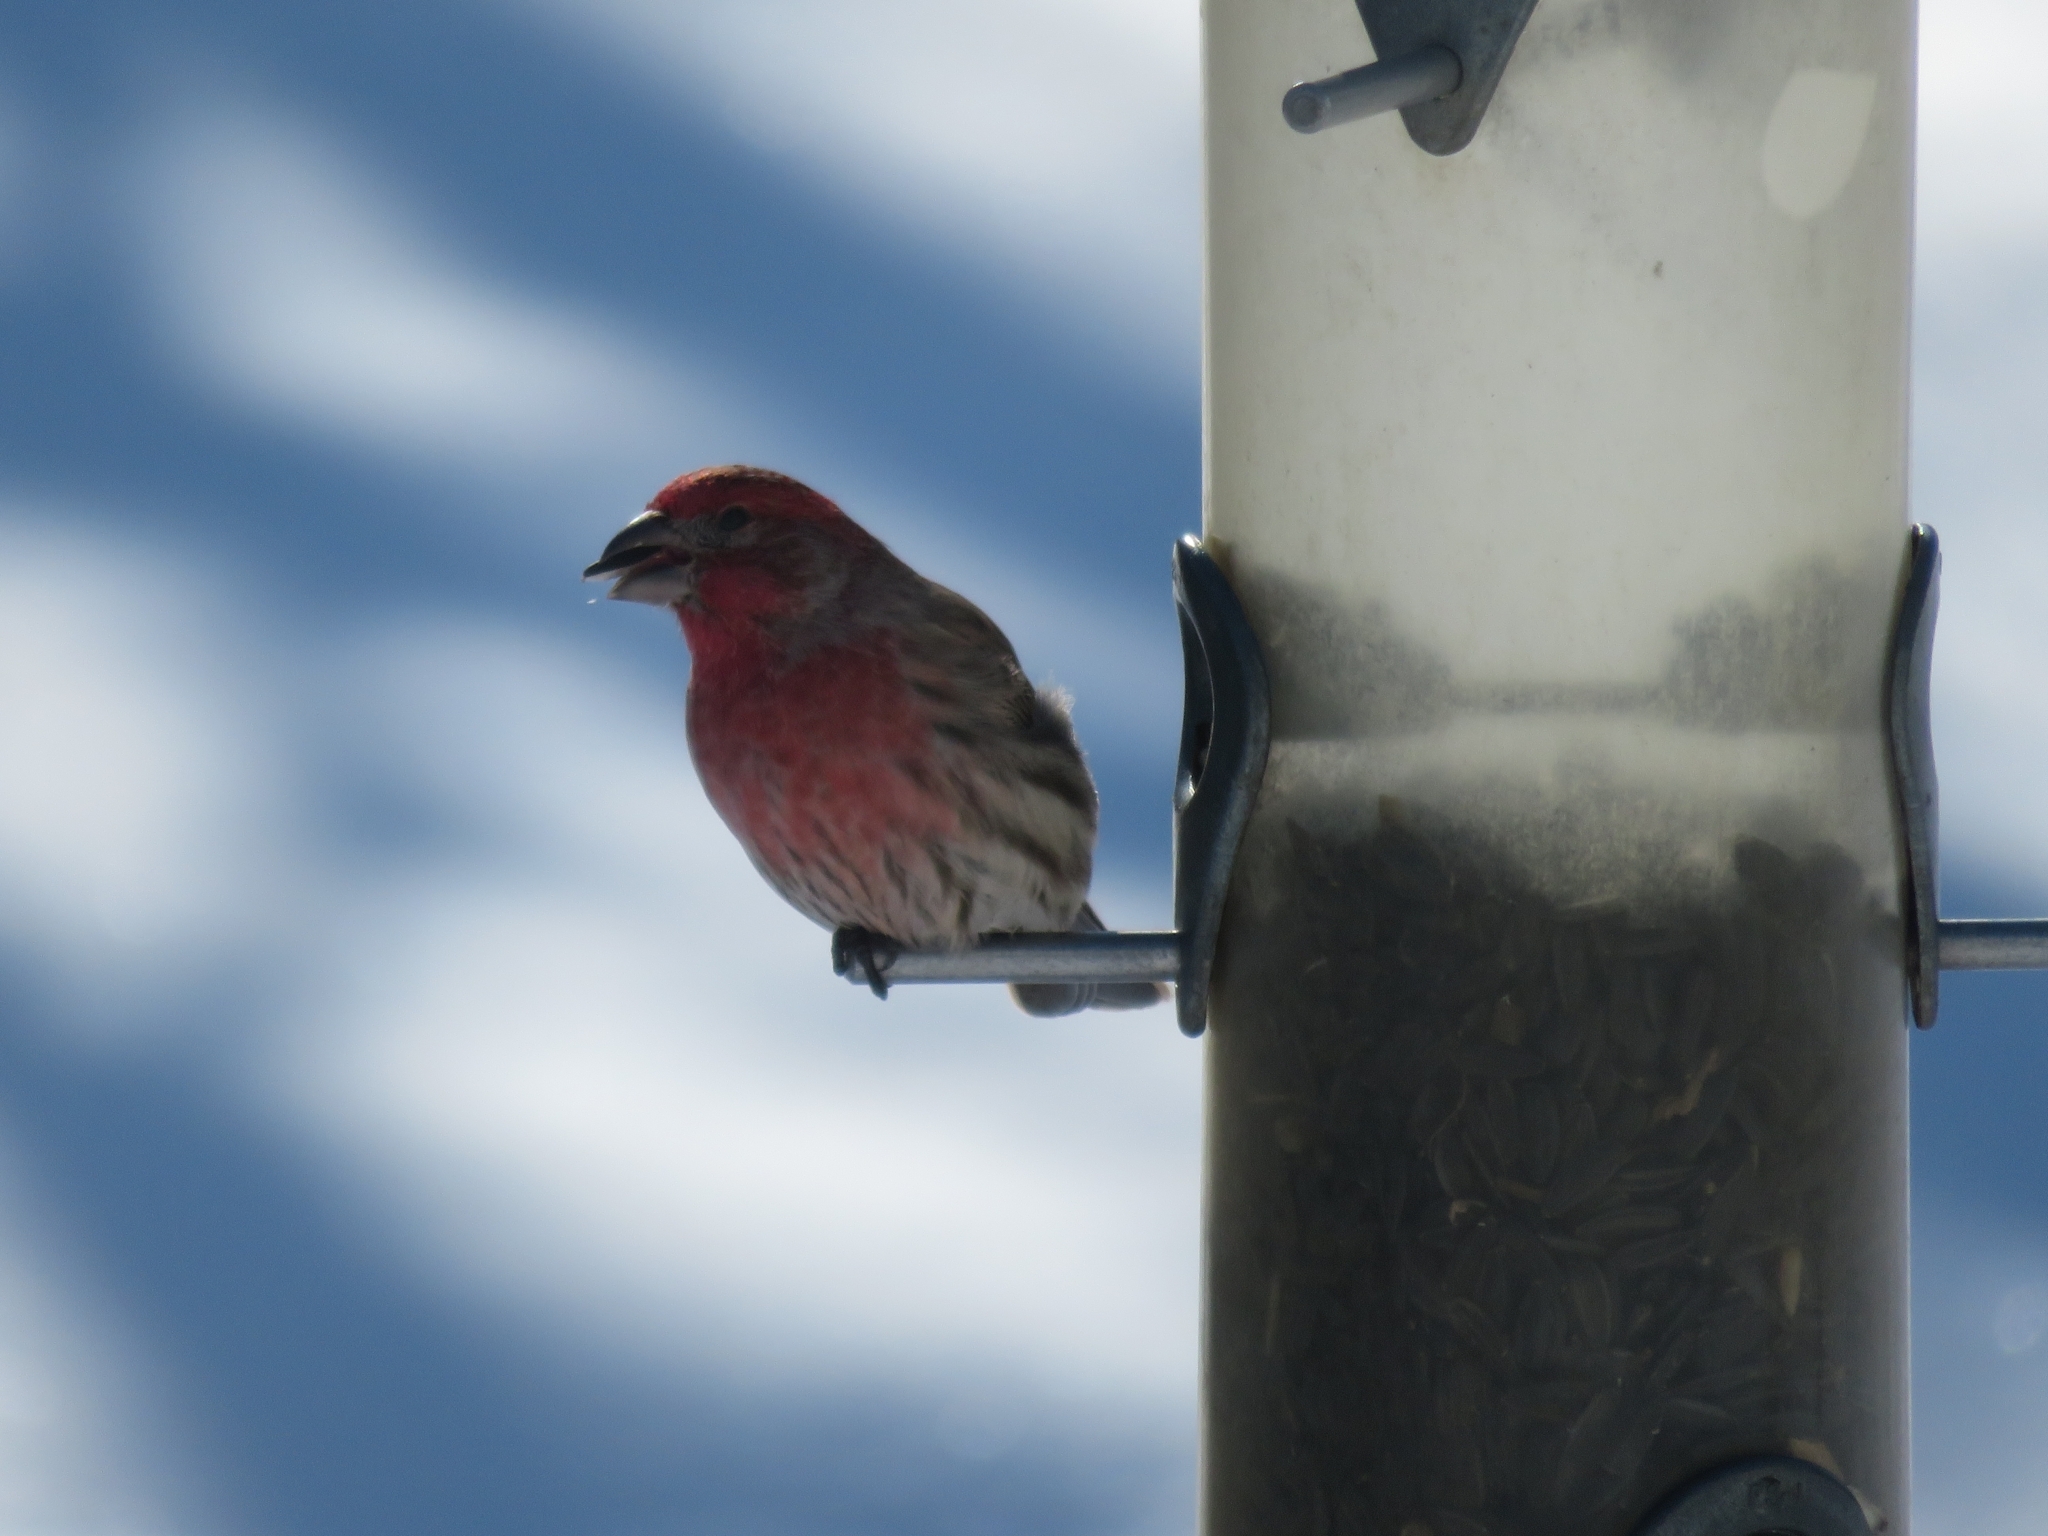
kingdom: Animalia
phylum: Chordata
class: Aves
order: Passeriformes
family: Fringillidae
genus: Haemorhous
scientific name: Haemorhous mexicanus
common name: House finch
